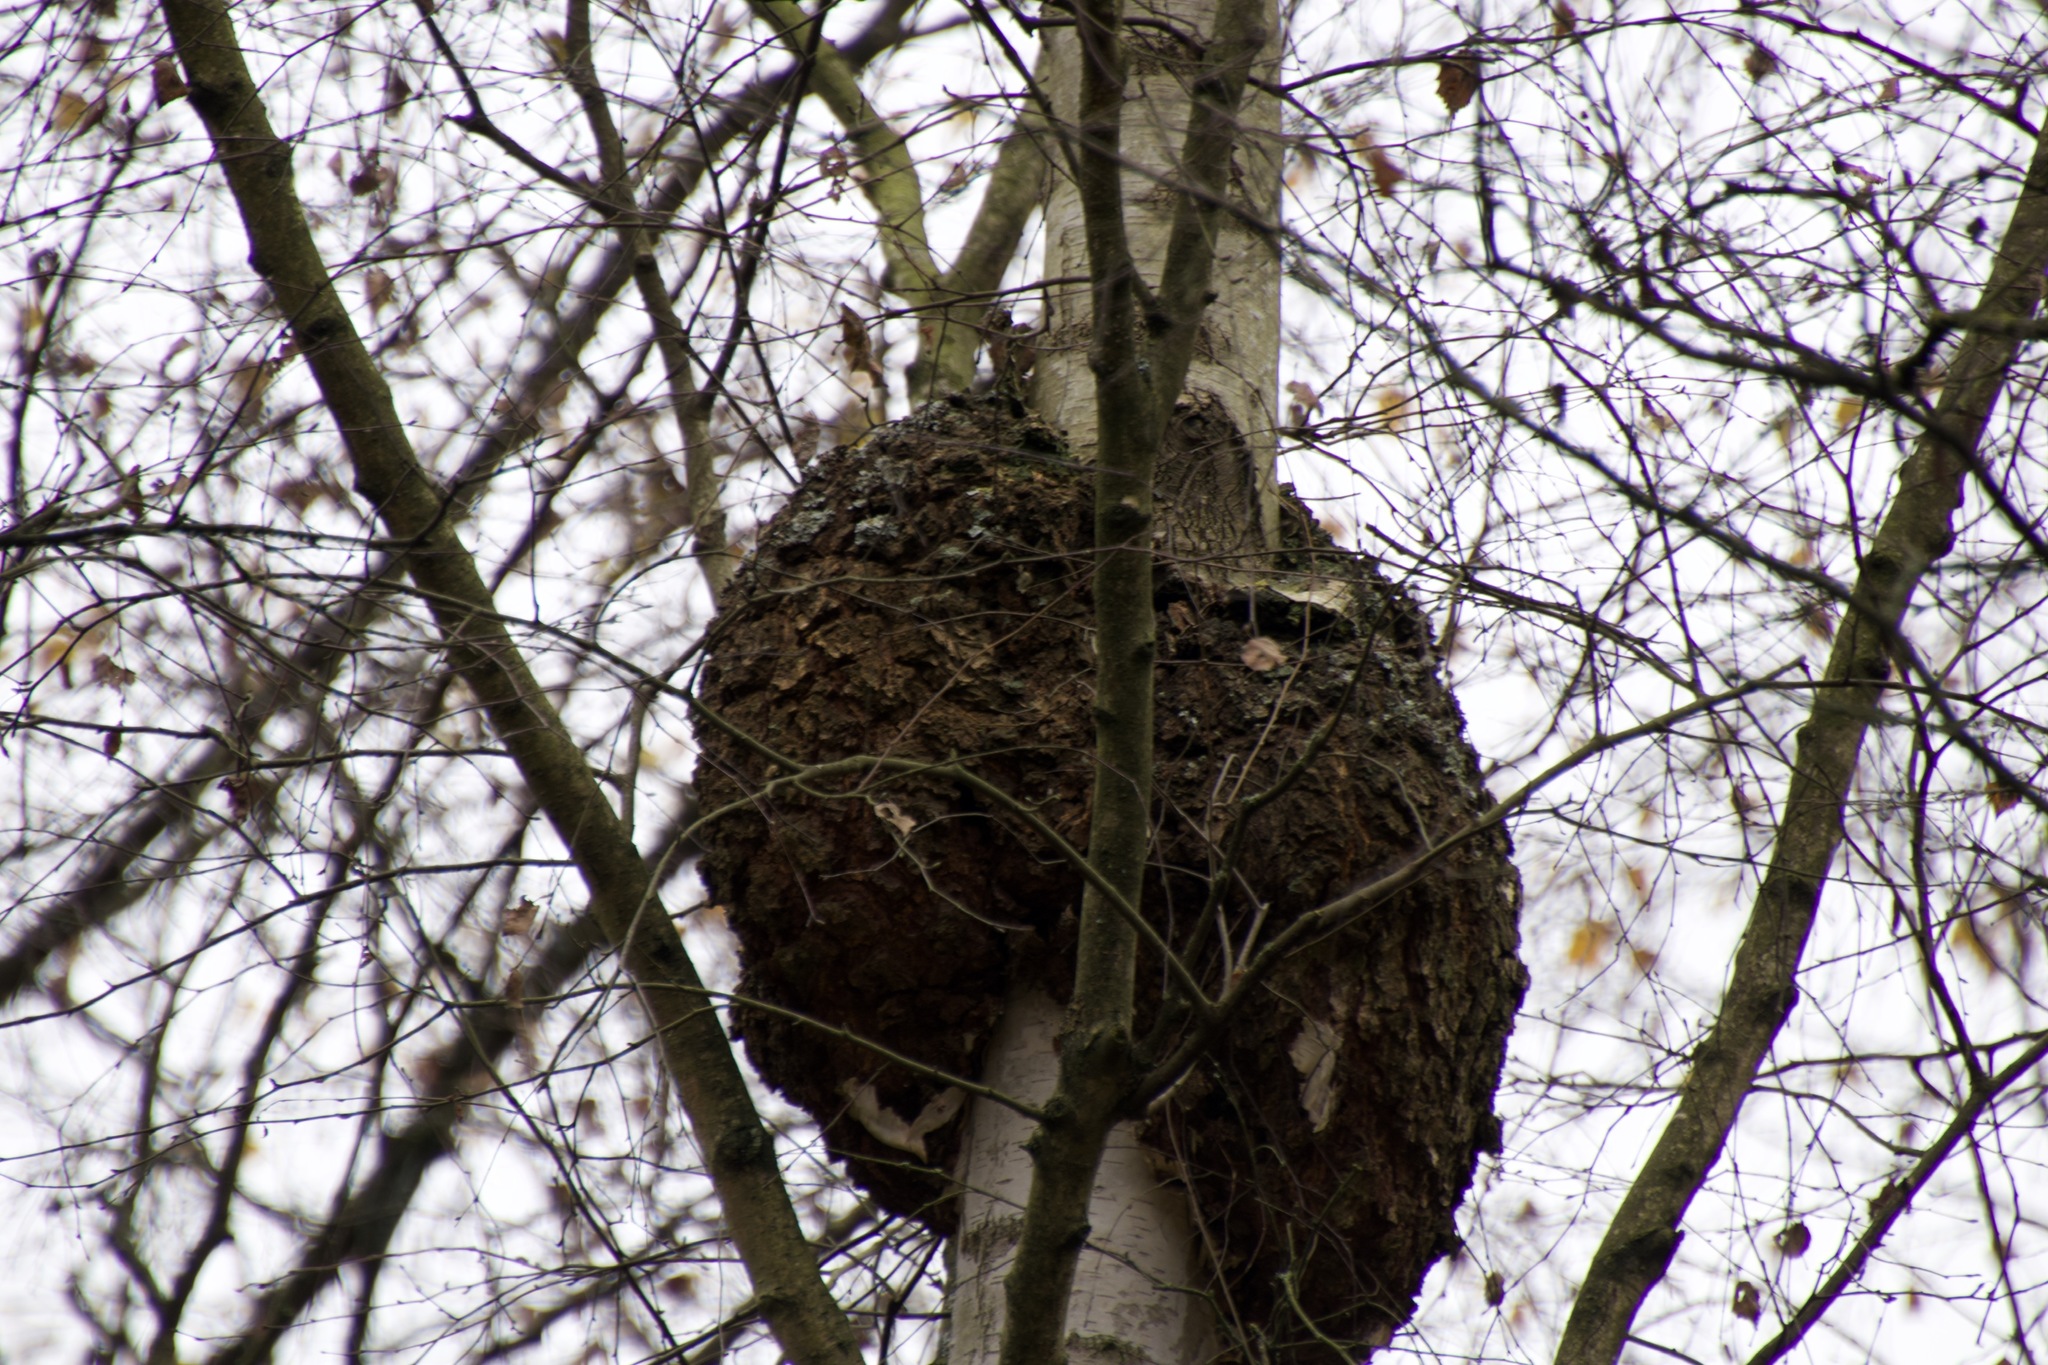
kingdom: Bacteria
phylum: Proteobacteria
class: Alphaproteobacteria
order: Rhizobiales
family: Rhizobiaceae
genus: Rhizobium
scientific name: Rhizobium Agrobacterium radiobacter
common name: Bacterial crown gall
